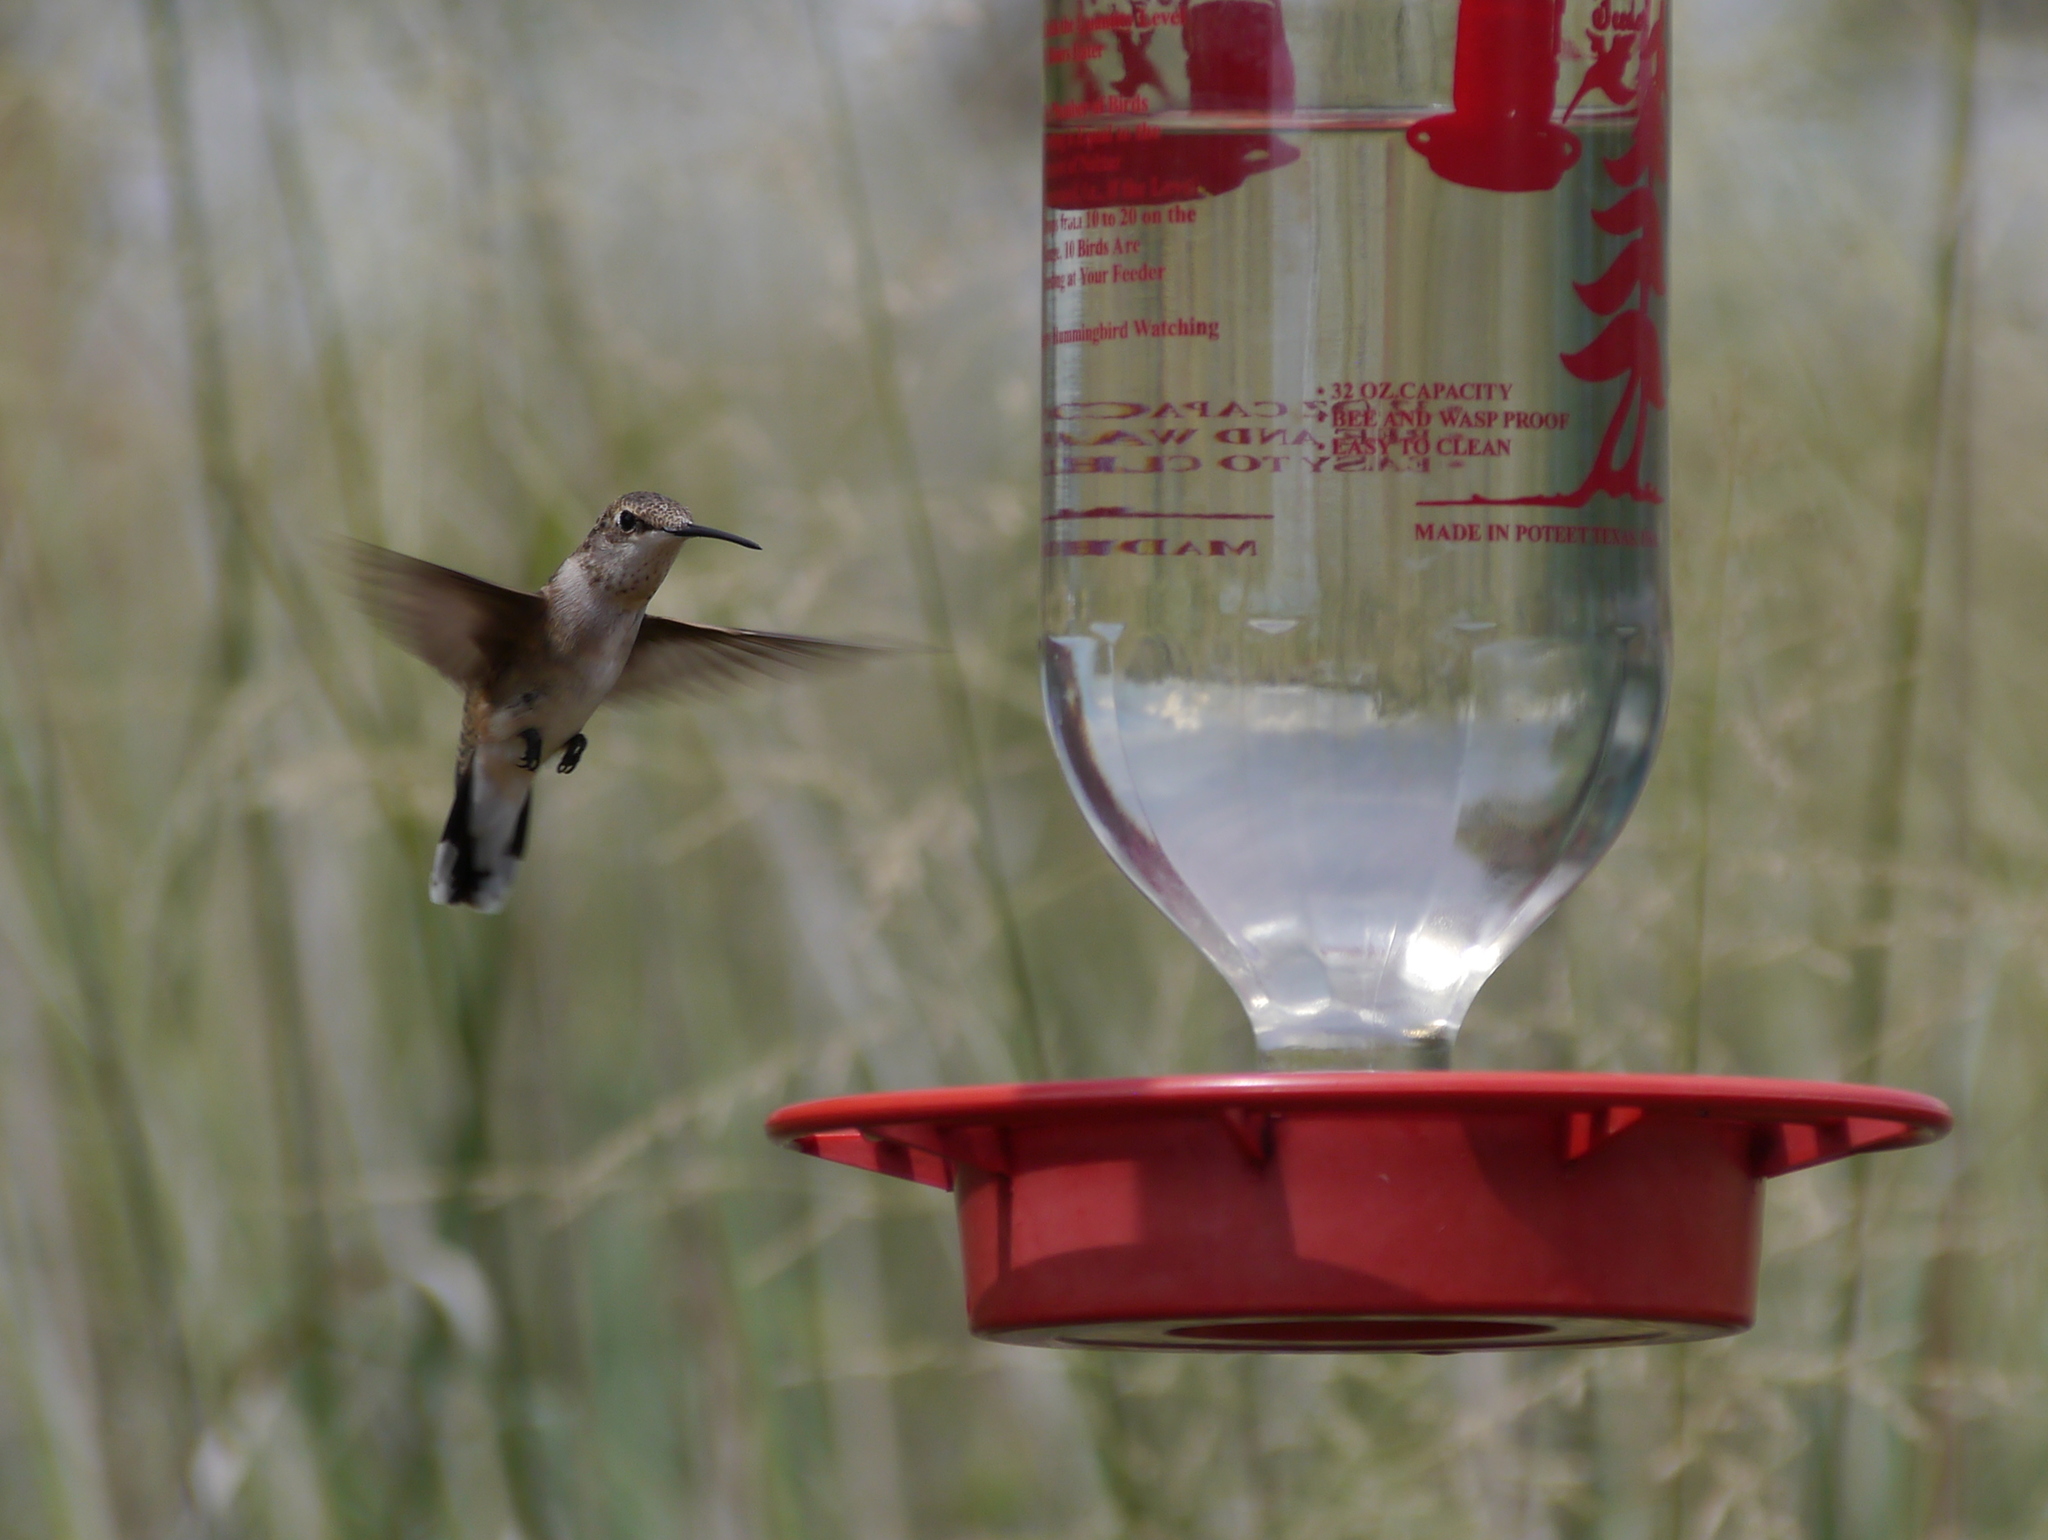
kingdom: Animalia
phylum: Chordata
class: Aves
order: Apodiformes
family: Trochilidae
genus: Archilochus
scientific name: Archilochus alexandri
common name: Black-chinned hummingbird
